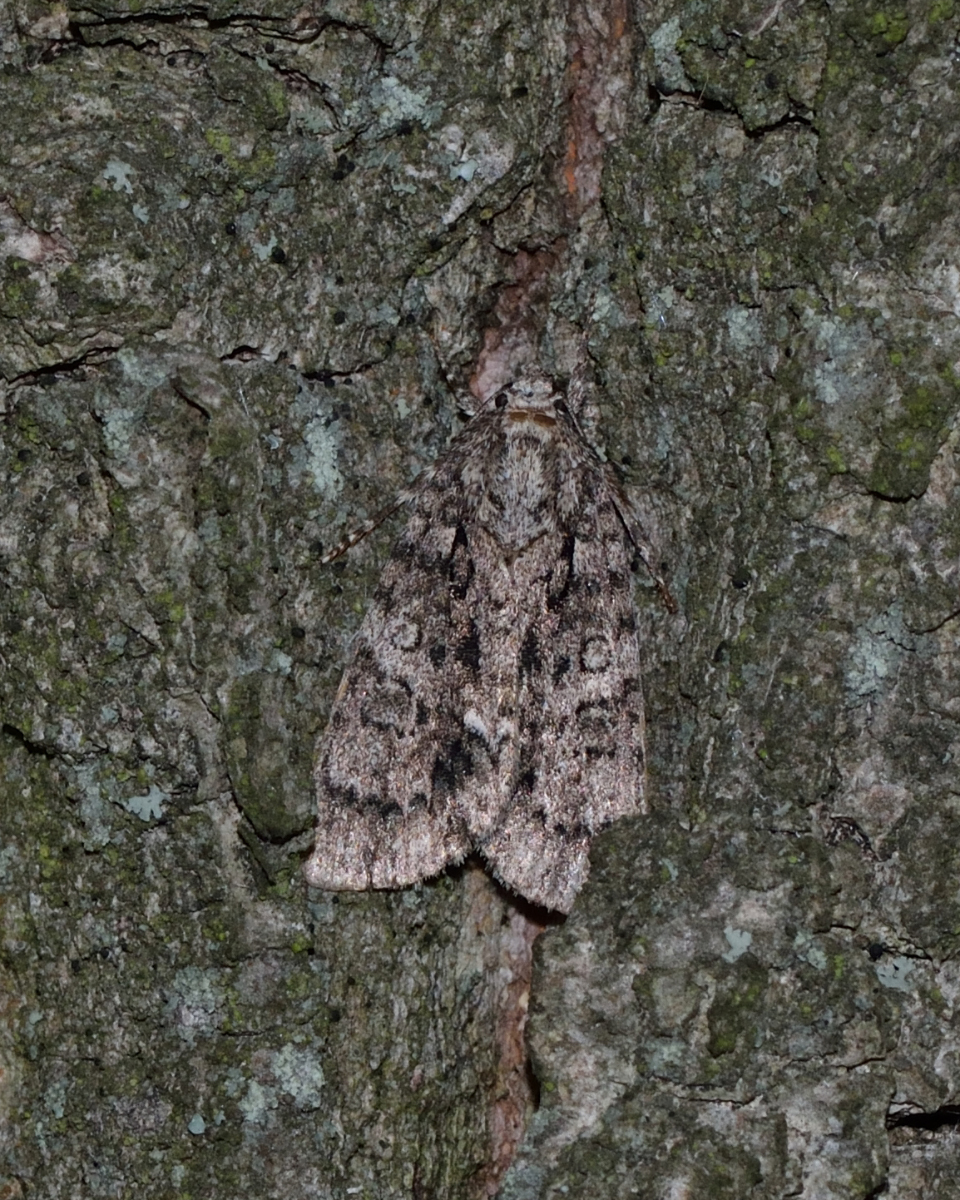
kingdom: Animalia
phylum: Arthropoda
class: Insecta
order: Lepidoptera
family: Noctuidae
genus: Acronicta
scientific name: Acronicta rumicis
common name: Knot grass
